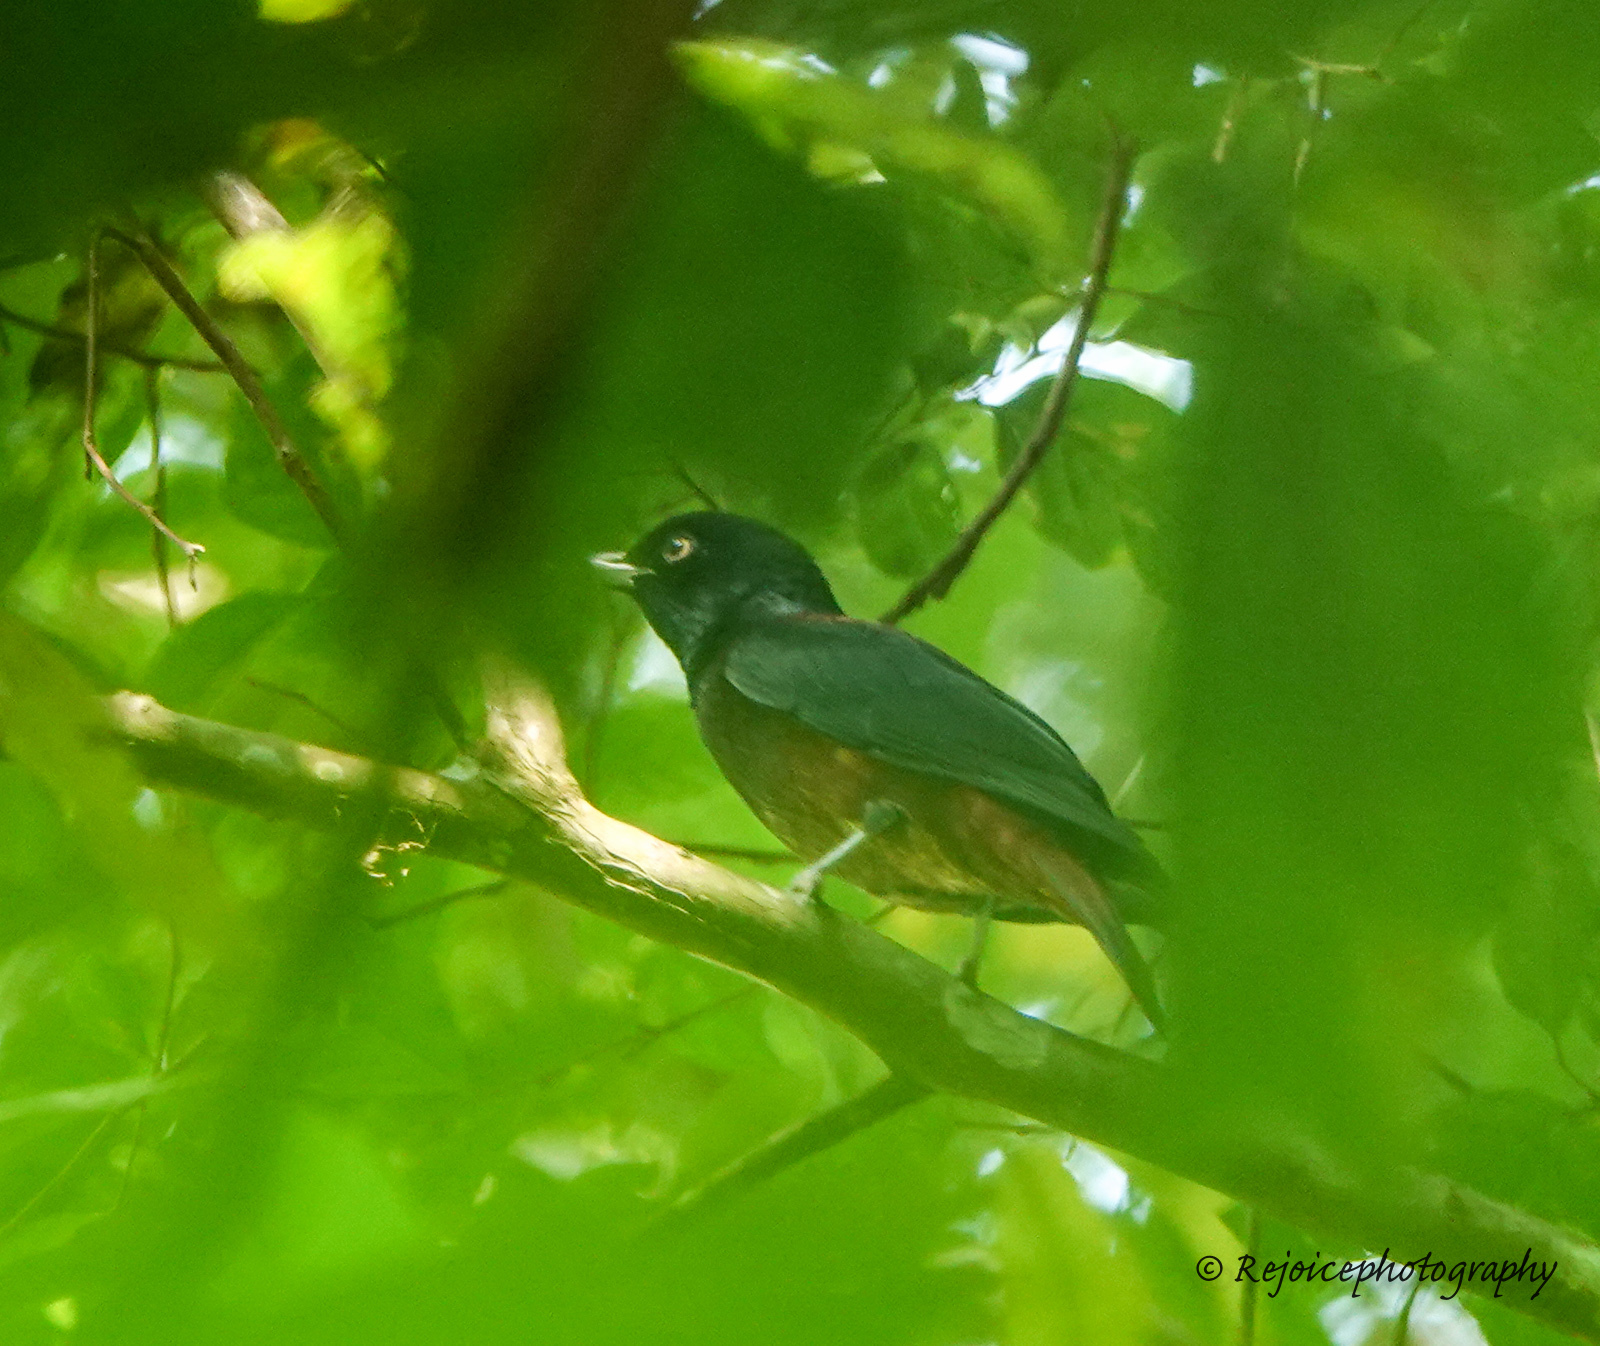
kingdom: Animalia
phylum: Chordata
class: Aves
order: Passeriformes
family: Oriolidae
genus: Oriolus
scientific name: Oriolus traillii
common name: Maroon oriole
